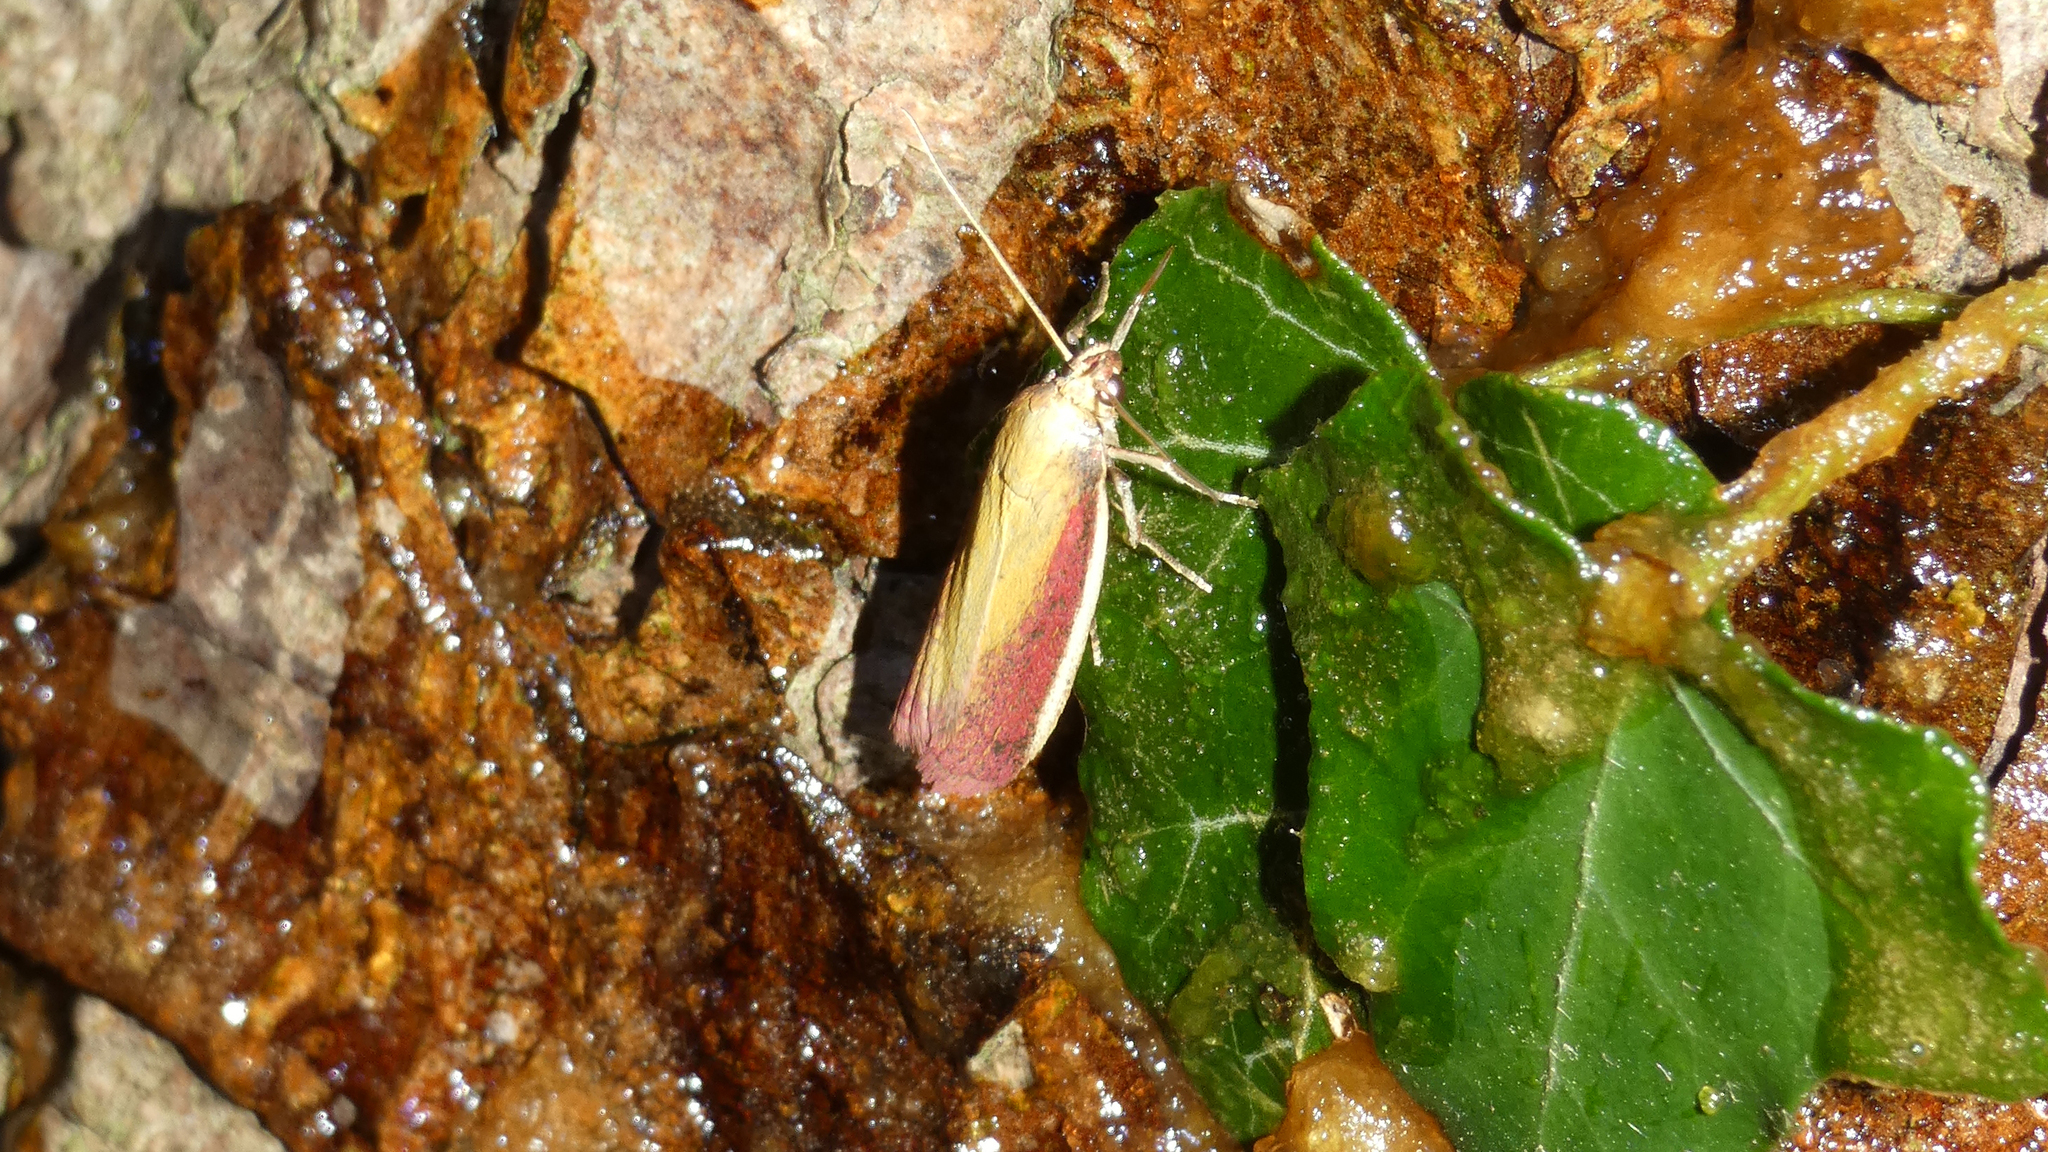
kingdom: Animalia
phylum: Arthropoda
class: Insecta
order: Lepidoptera
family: Pyralidae
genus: Oncocera
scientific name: Oncocera semirubella
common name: Rosy-striped knot-horn
